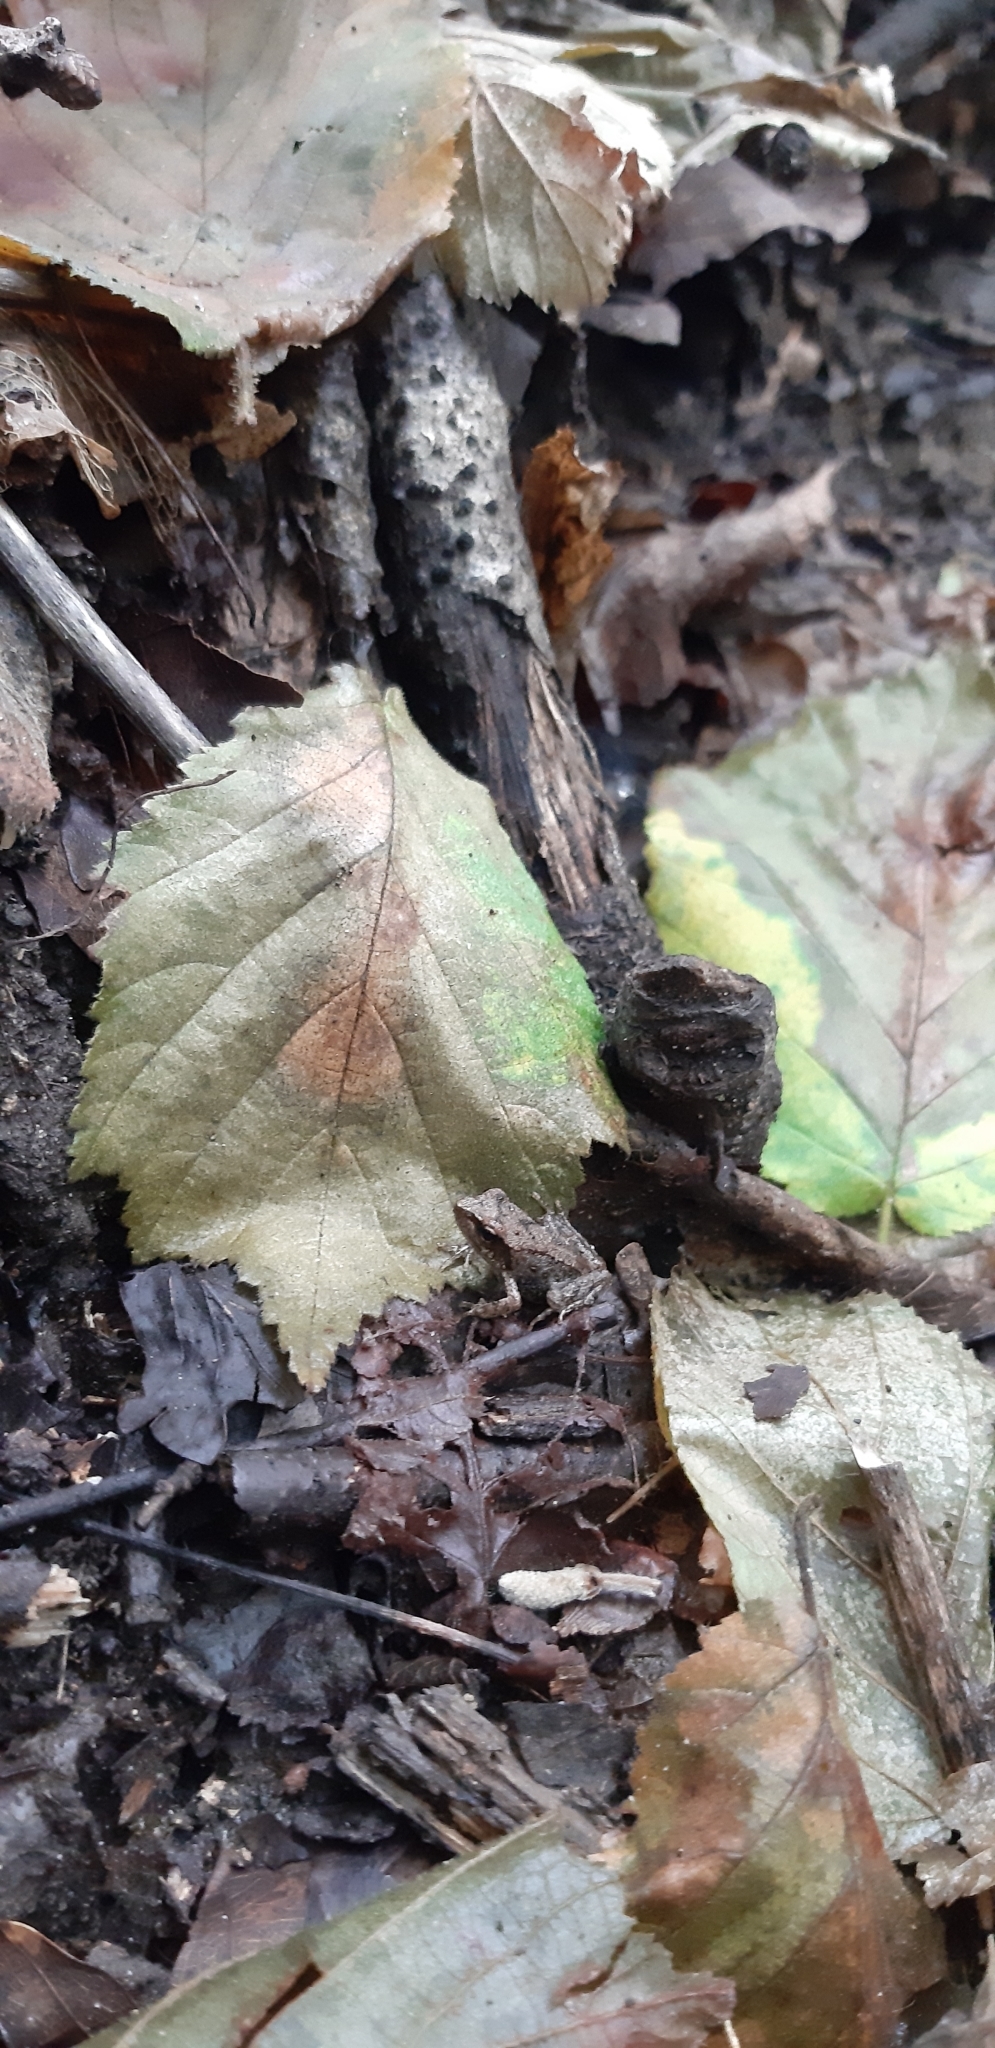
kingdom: Animalia
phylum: Chordata
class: Amphibia
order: Anura
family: Ranidae
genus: Rana
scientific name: Rana italica
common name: Italian stream frog
